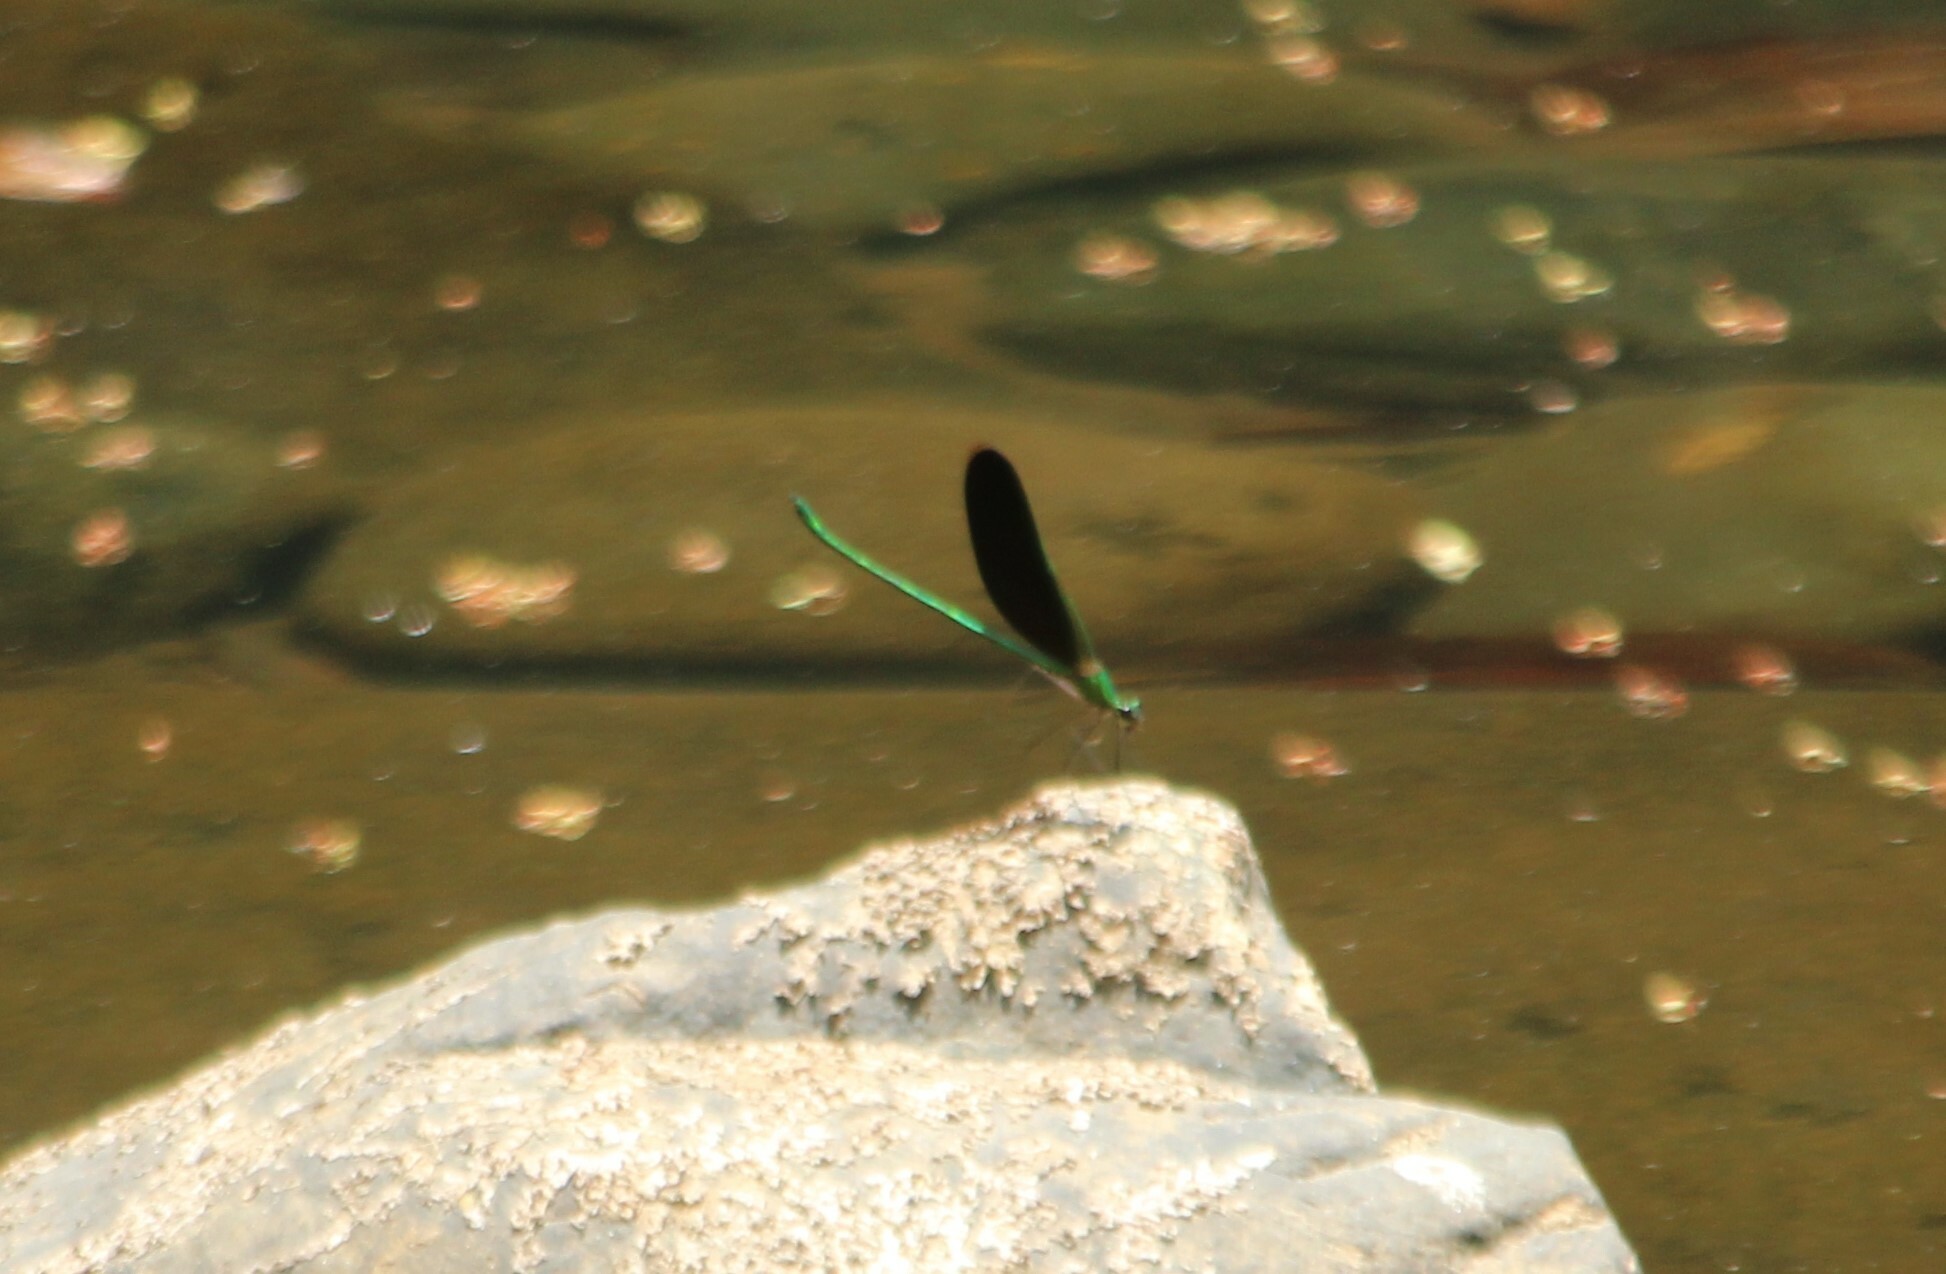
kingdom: Animalia
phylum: Arthropoda
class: Insecta
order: Odonata
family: Calopterygidae
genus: Neurobasis
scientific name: Neurobasis chinensis
